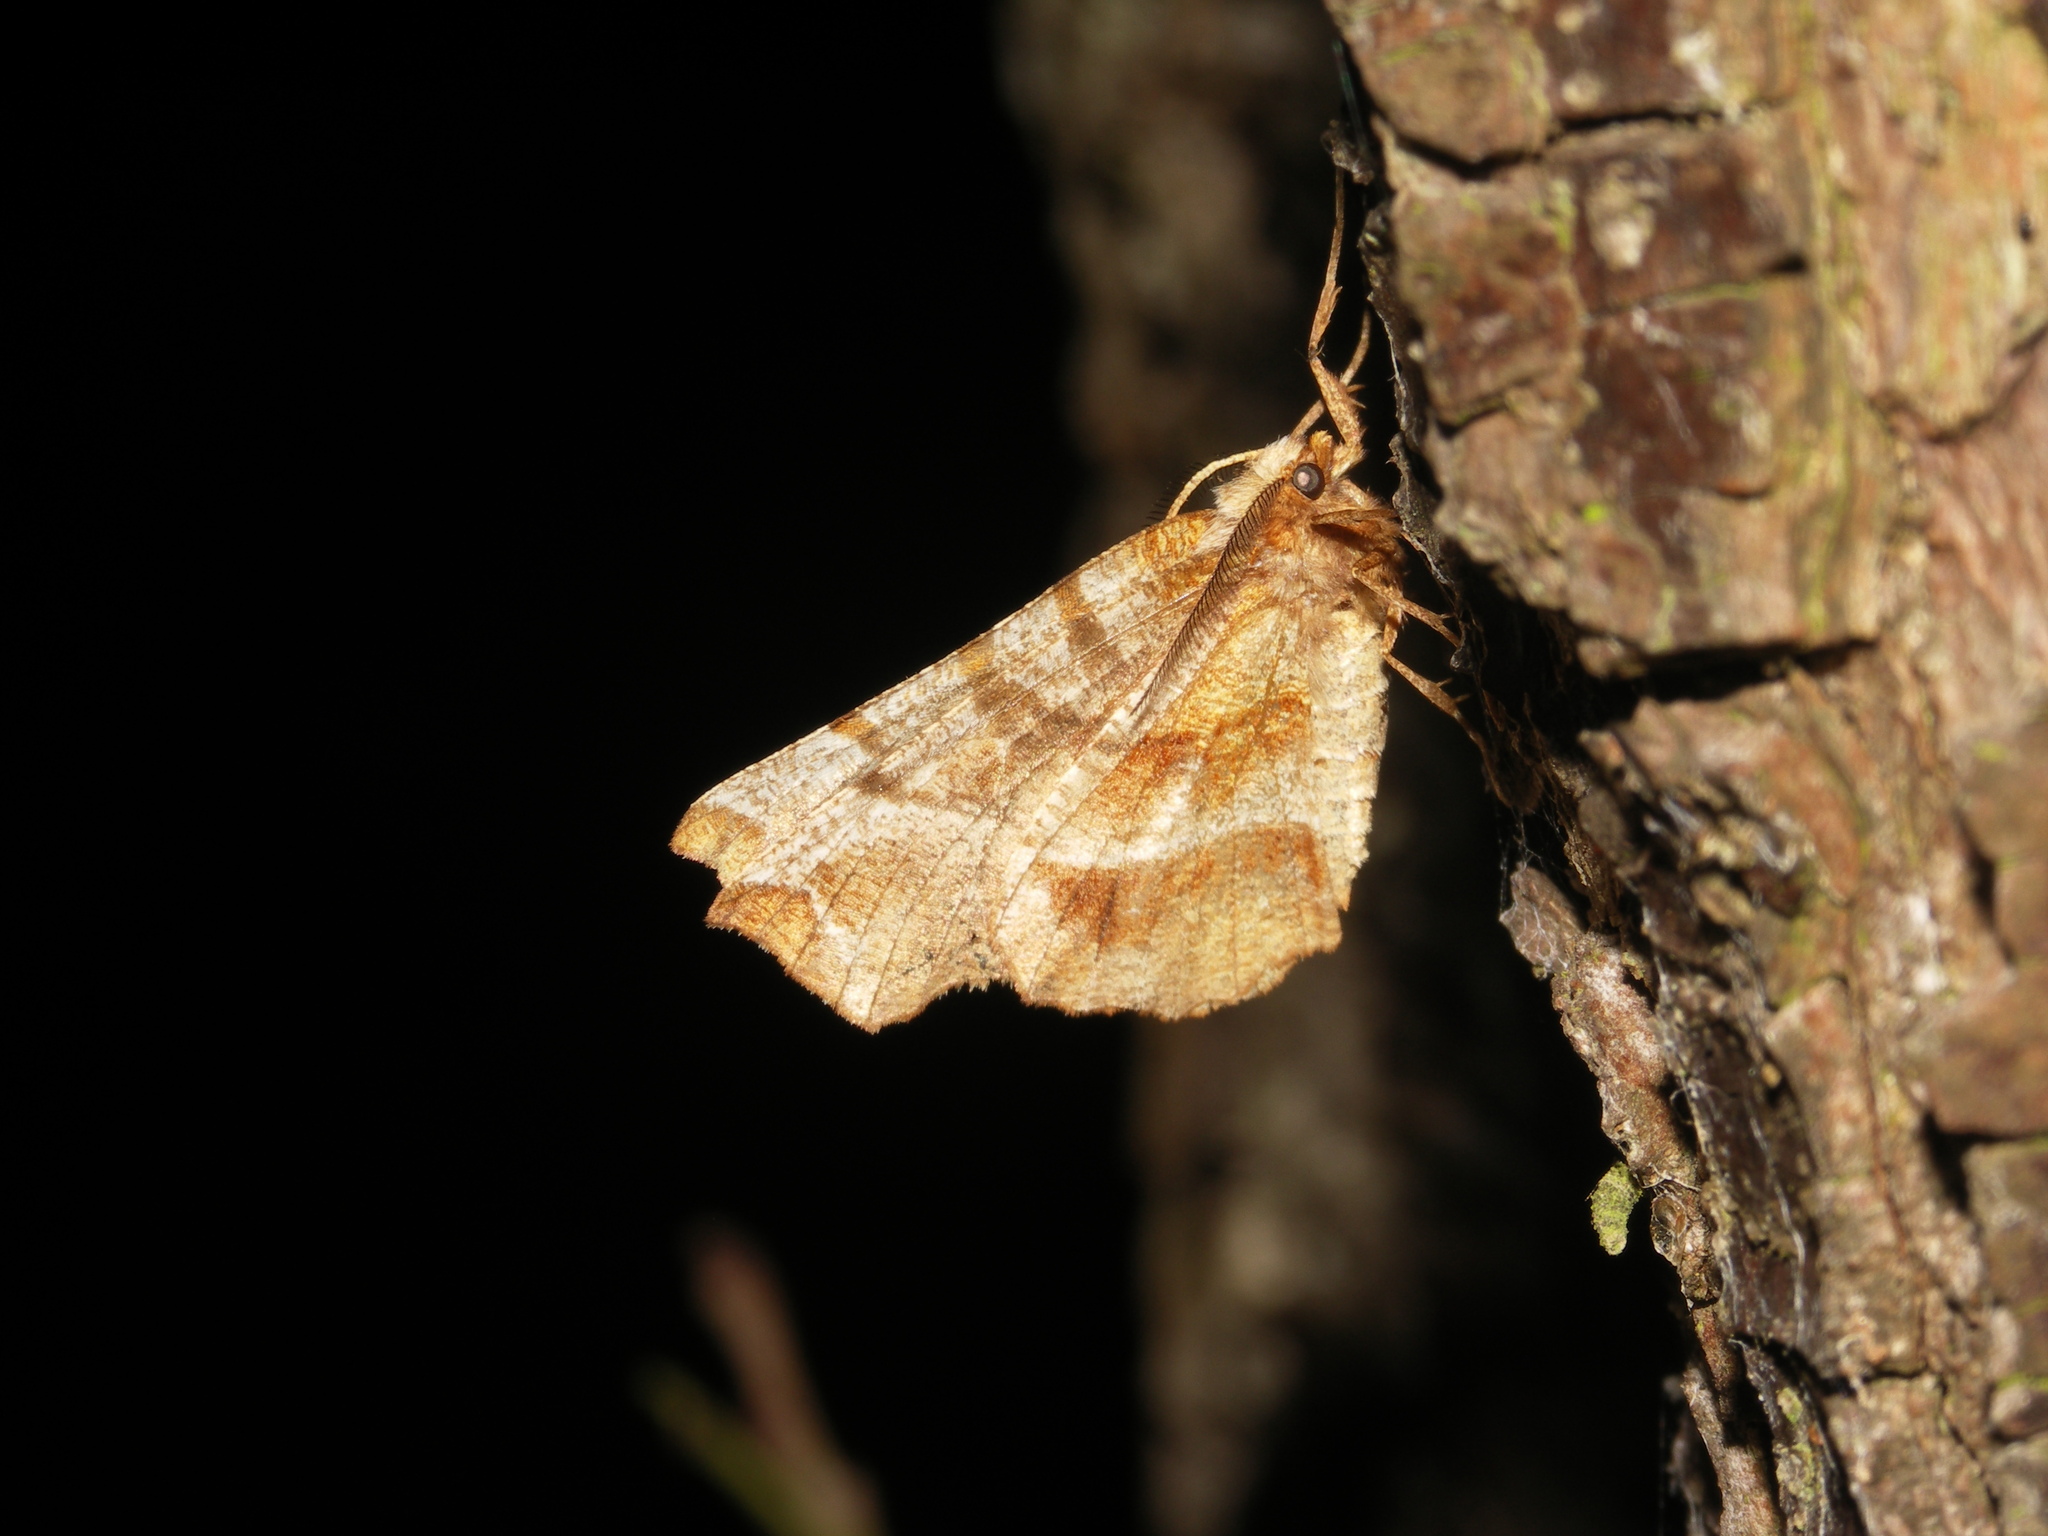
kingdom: Animalia
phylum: Arthropoda
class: Insecta
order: Lepidoptera
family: Geometridae
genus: Selenia
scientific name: Selenia dentaria
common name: Early thorn
